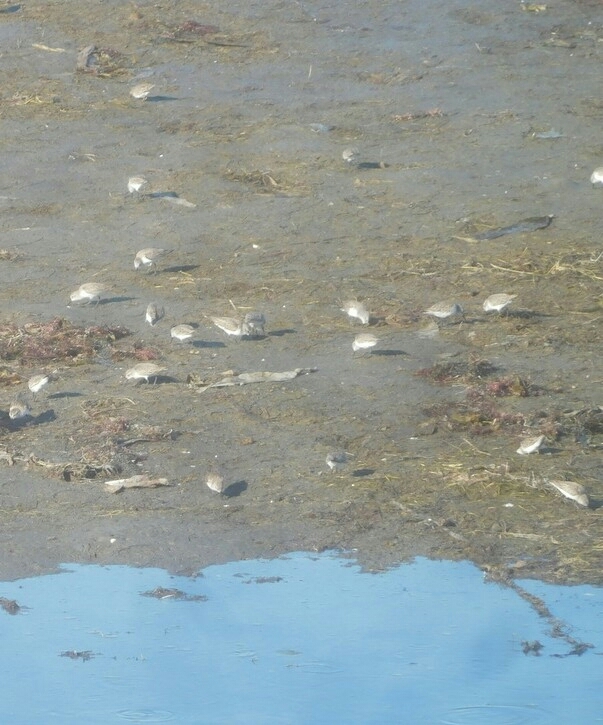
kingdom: Animalia
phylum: Chordata
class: Aves
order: Charadriiformes
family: Scolopacidae
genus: Calidris
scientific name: Calidris mauri
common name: Western sandpiper
